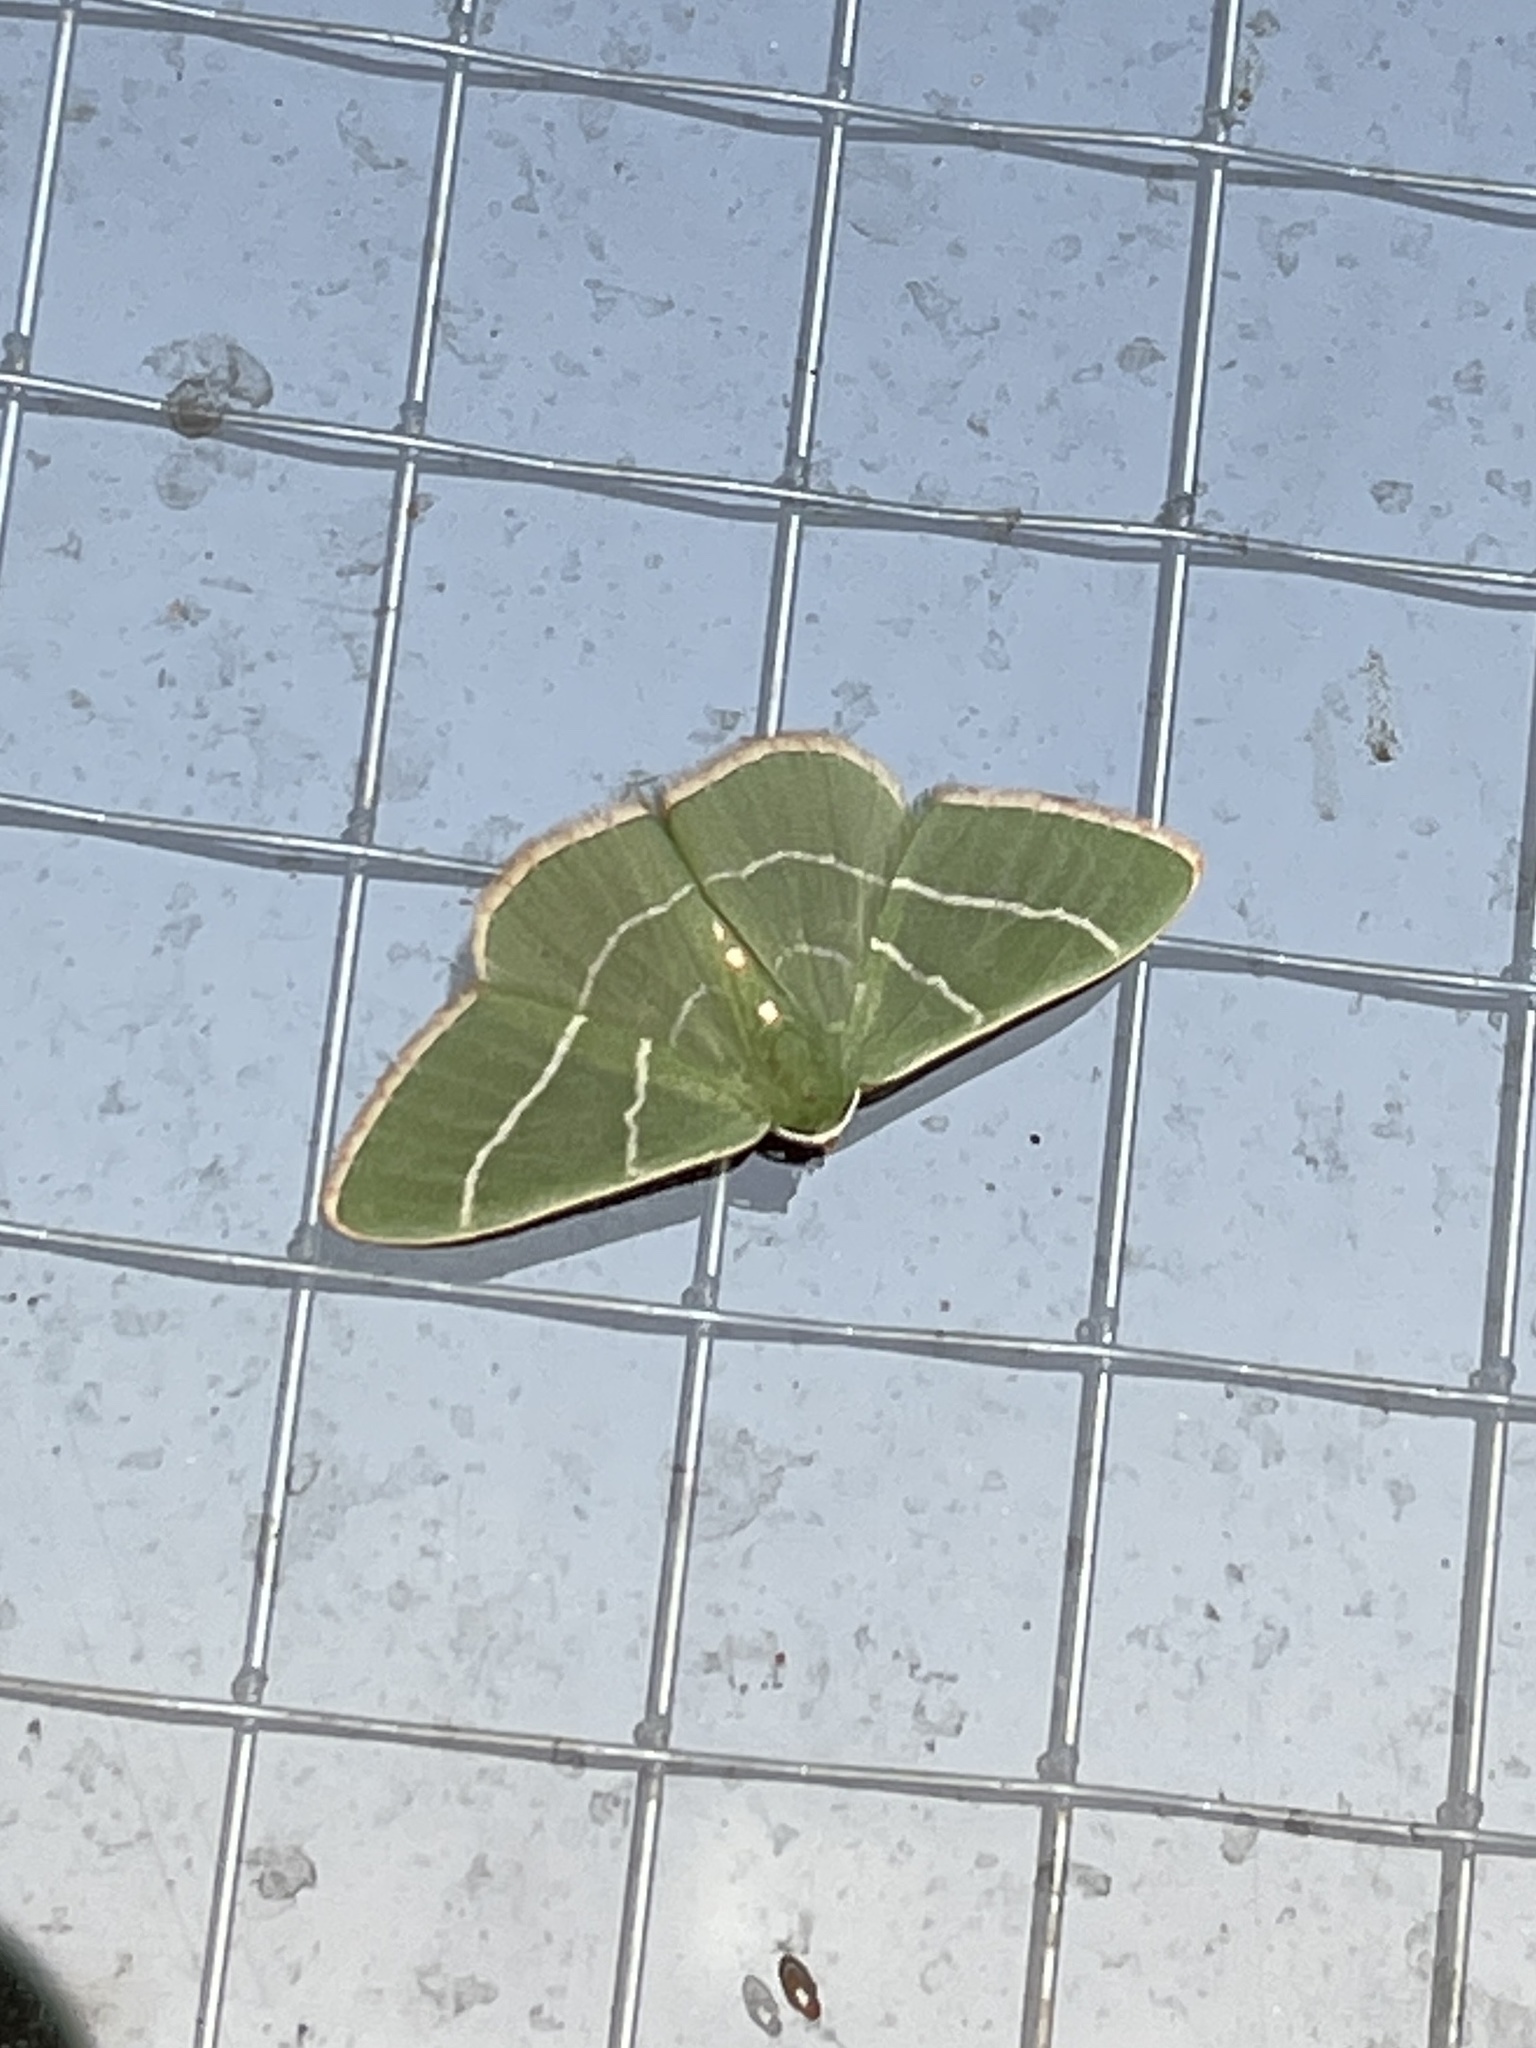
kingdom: Animalia
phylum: Arthropoda
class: Insecta
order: Lepidoptera
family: Geometridae
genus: Nemoria
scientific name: Nemoria obliqua
